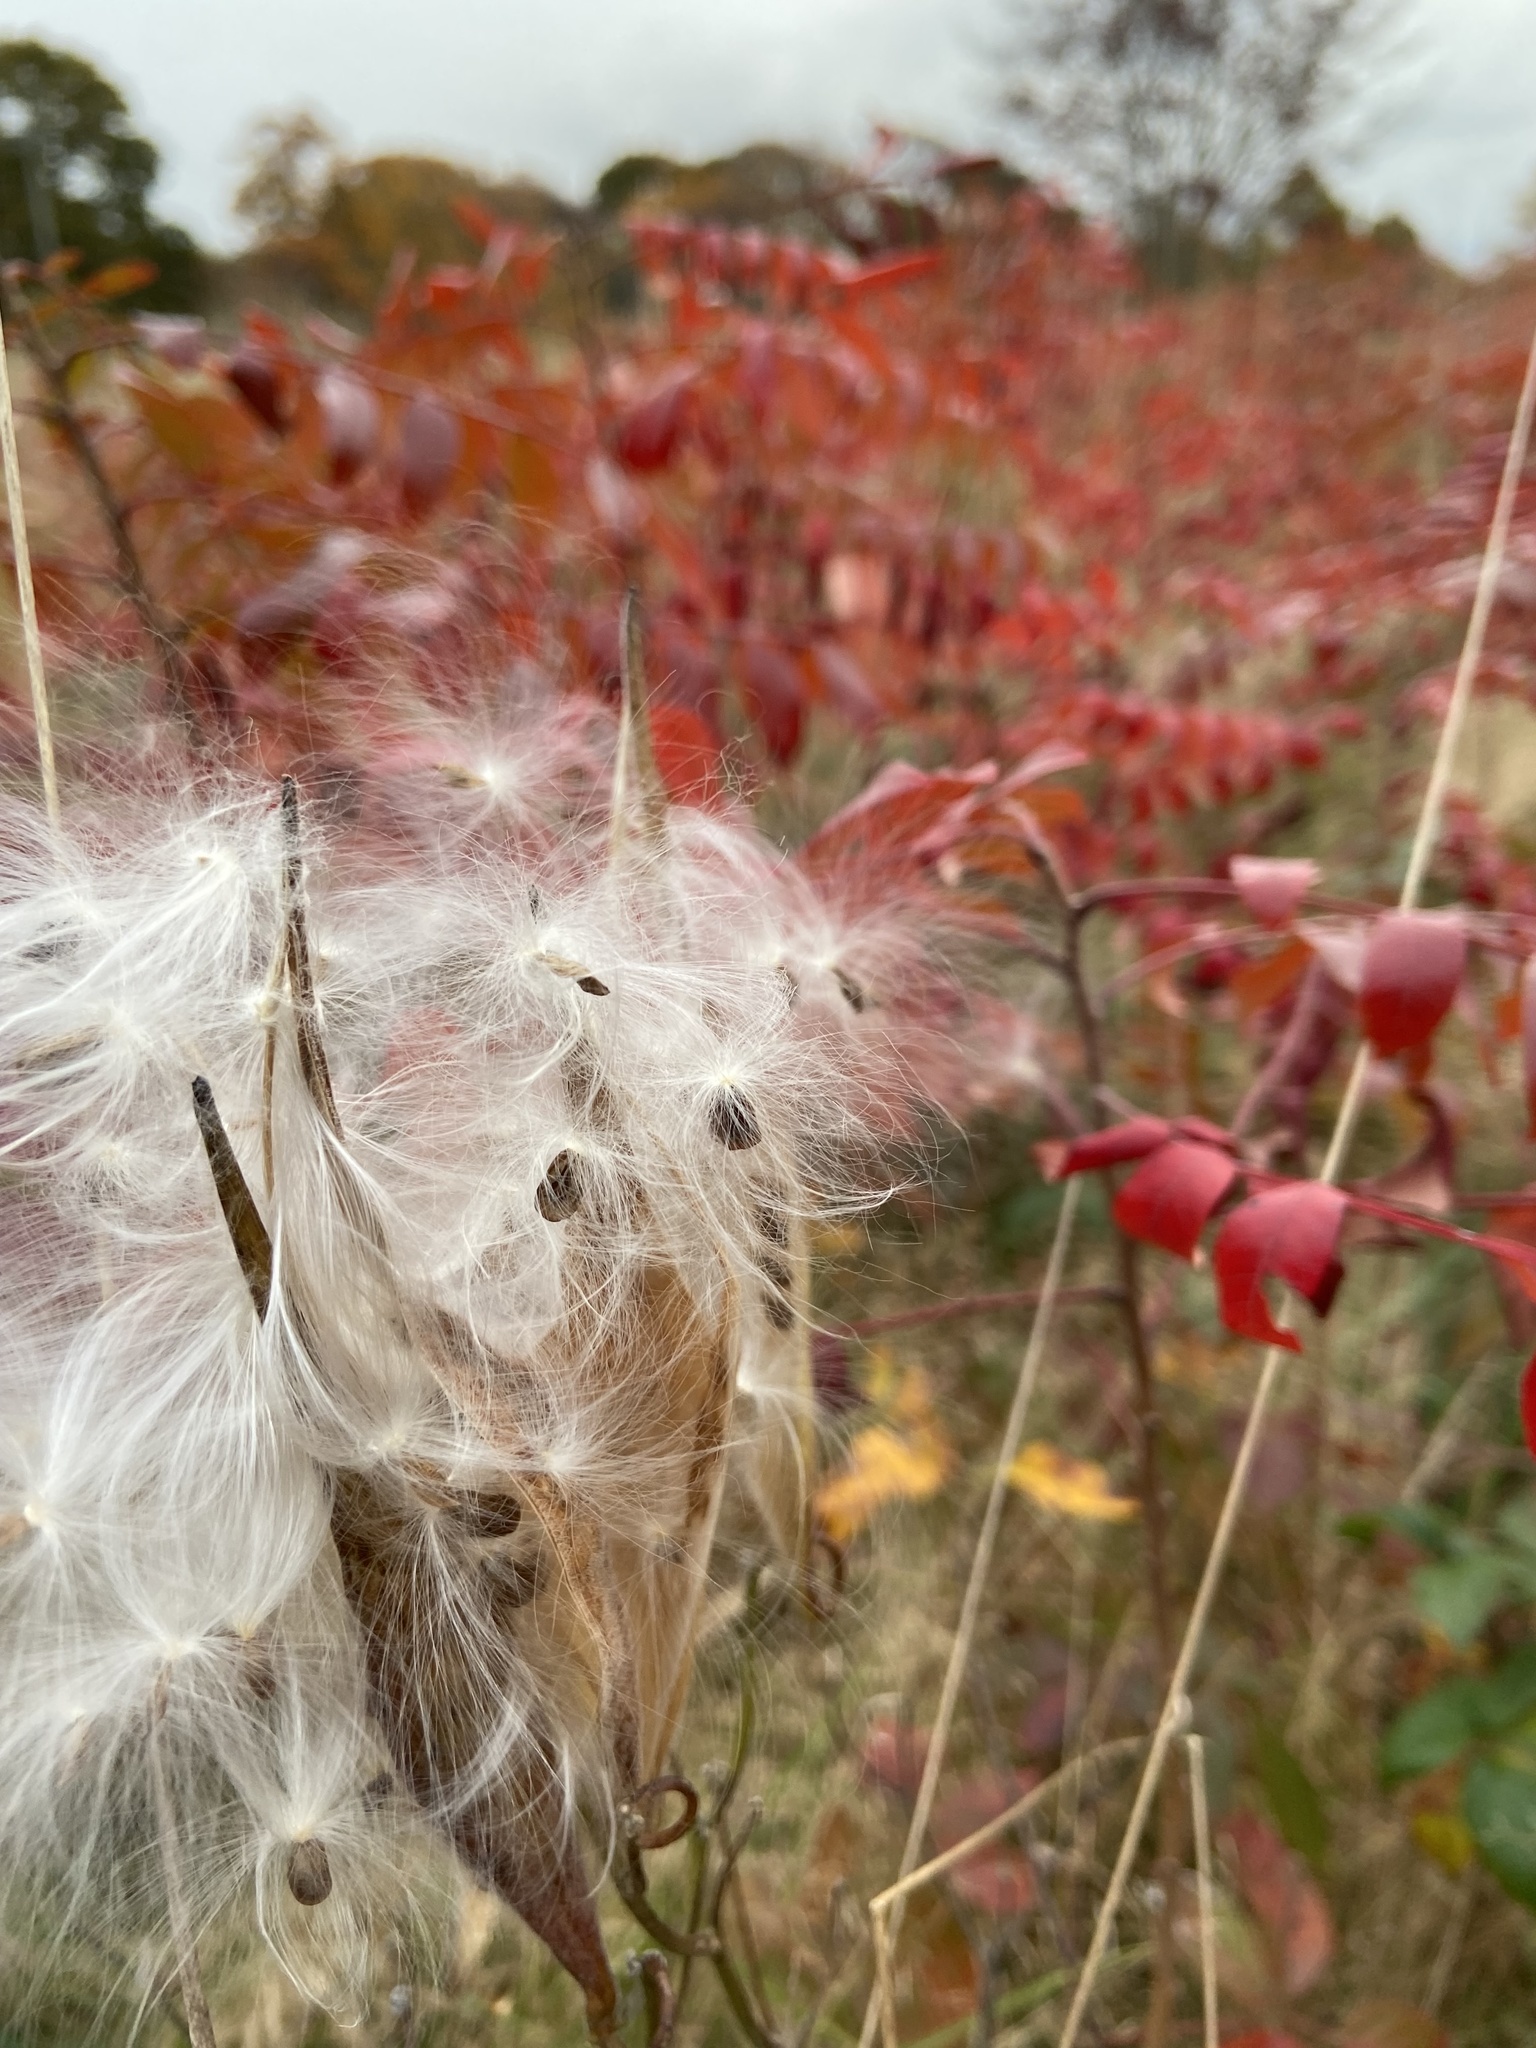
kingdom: Plantae
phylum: Tracheophyta
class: Magnoliopsida
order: Sapindales
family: Anacardiaceae
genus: Rhus
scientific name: Rhus copallina
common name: Shining sumac
